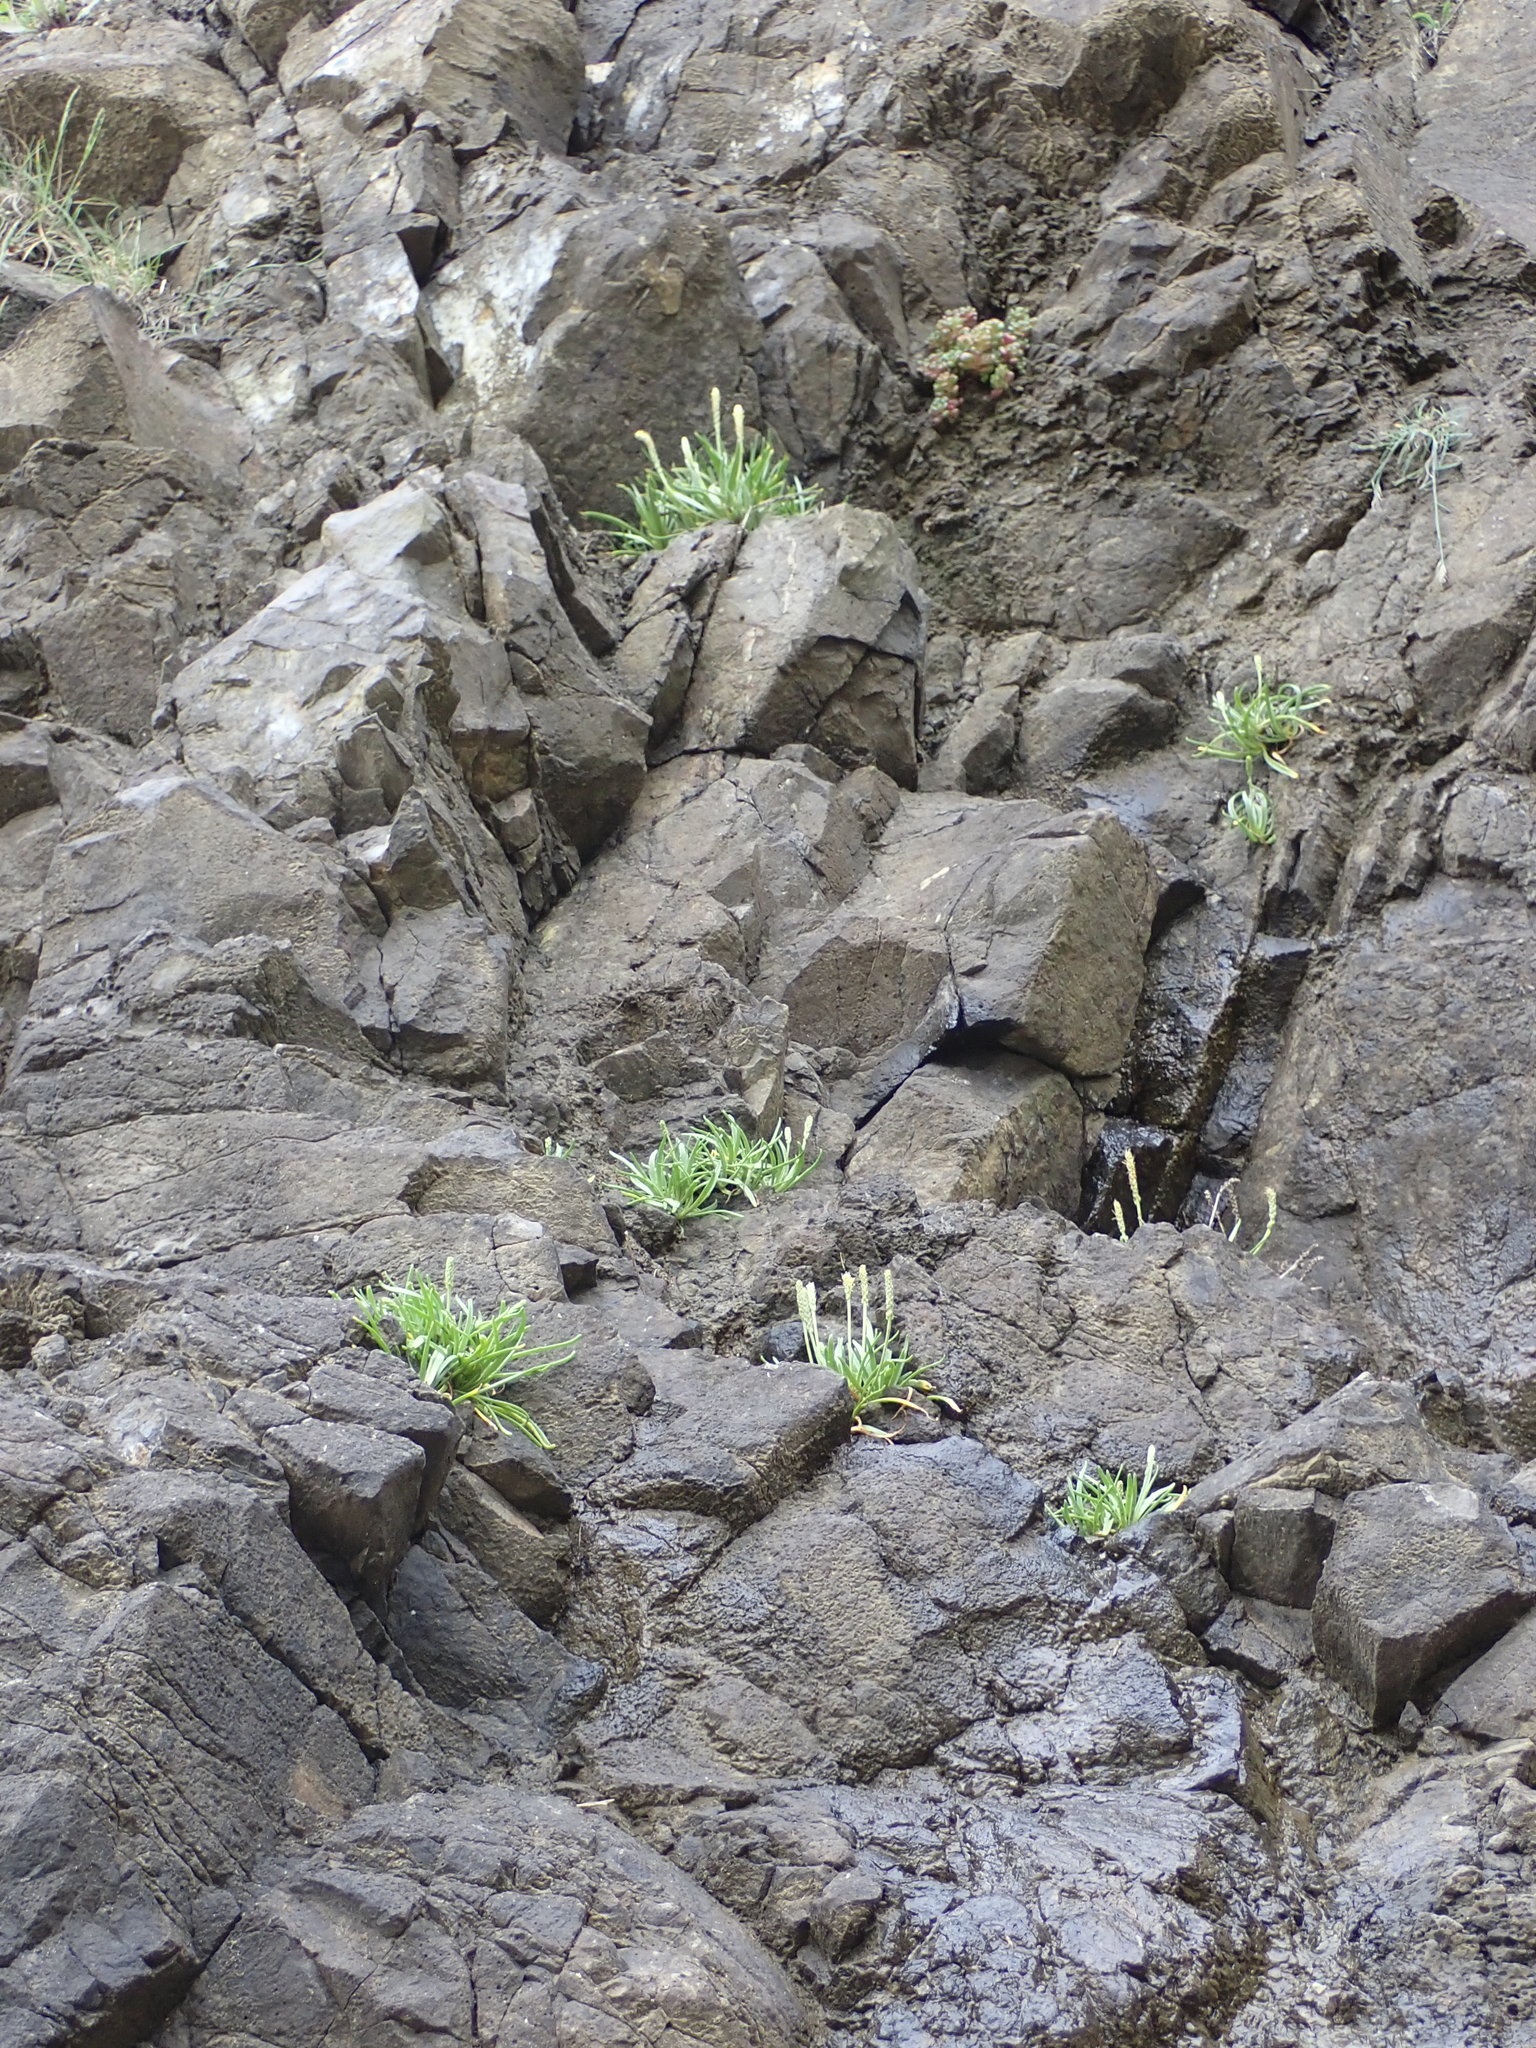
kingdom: Plantae
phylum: Tracheophyta
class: Magnoliopsida
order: Lamiales
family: Plantaginaceae
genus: Plantago
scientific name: Plantago maritima
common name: Sea plantain
